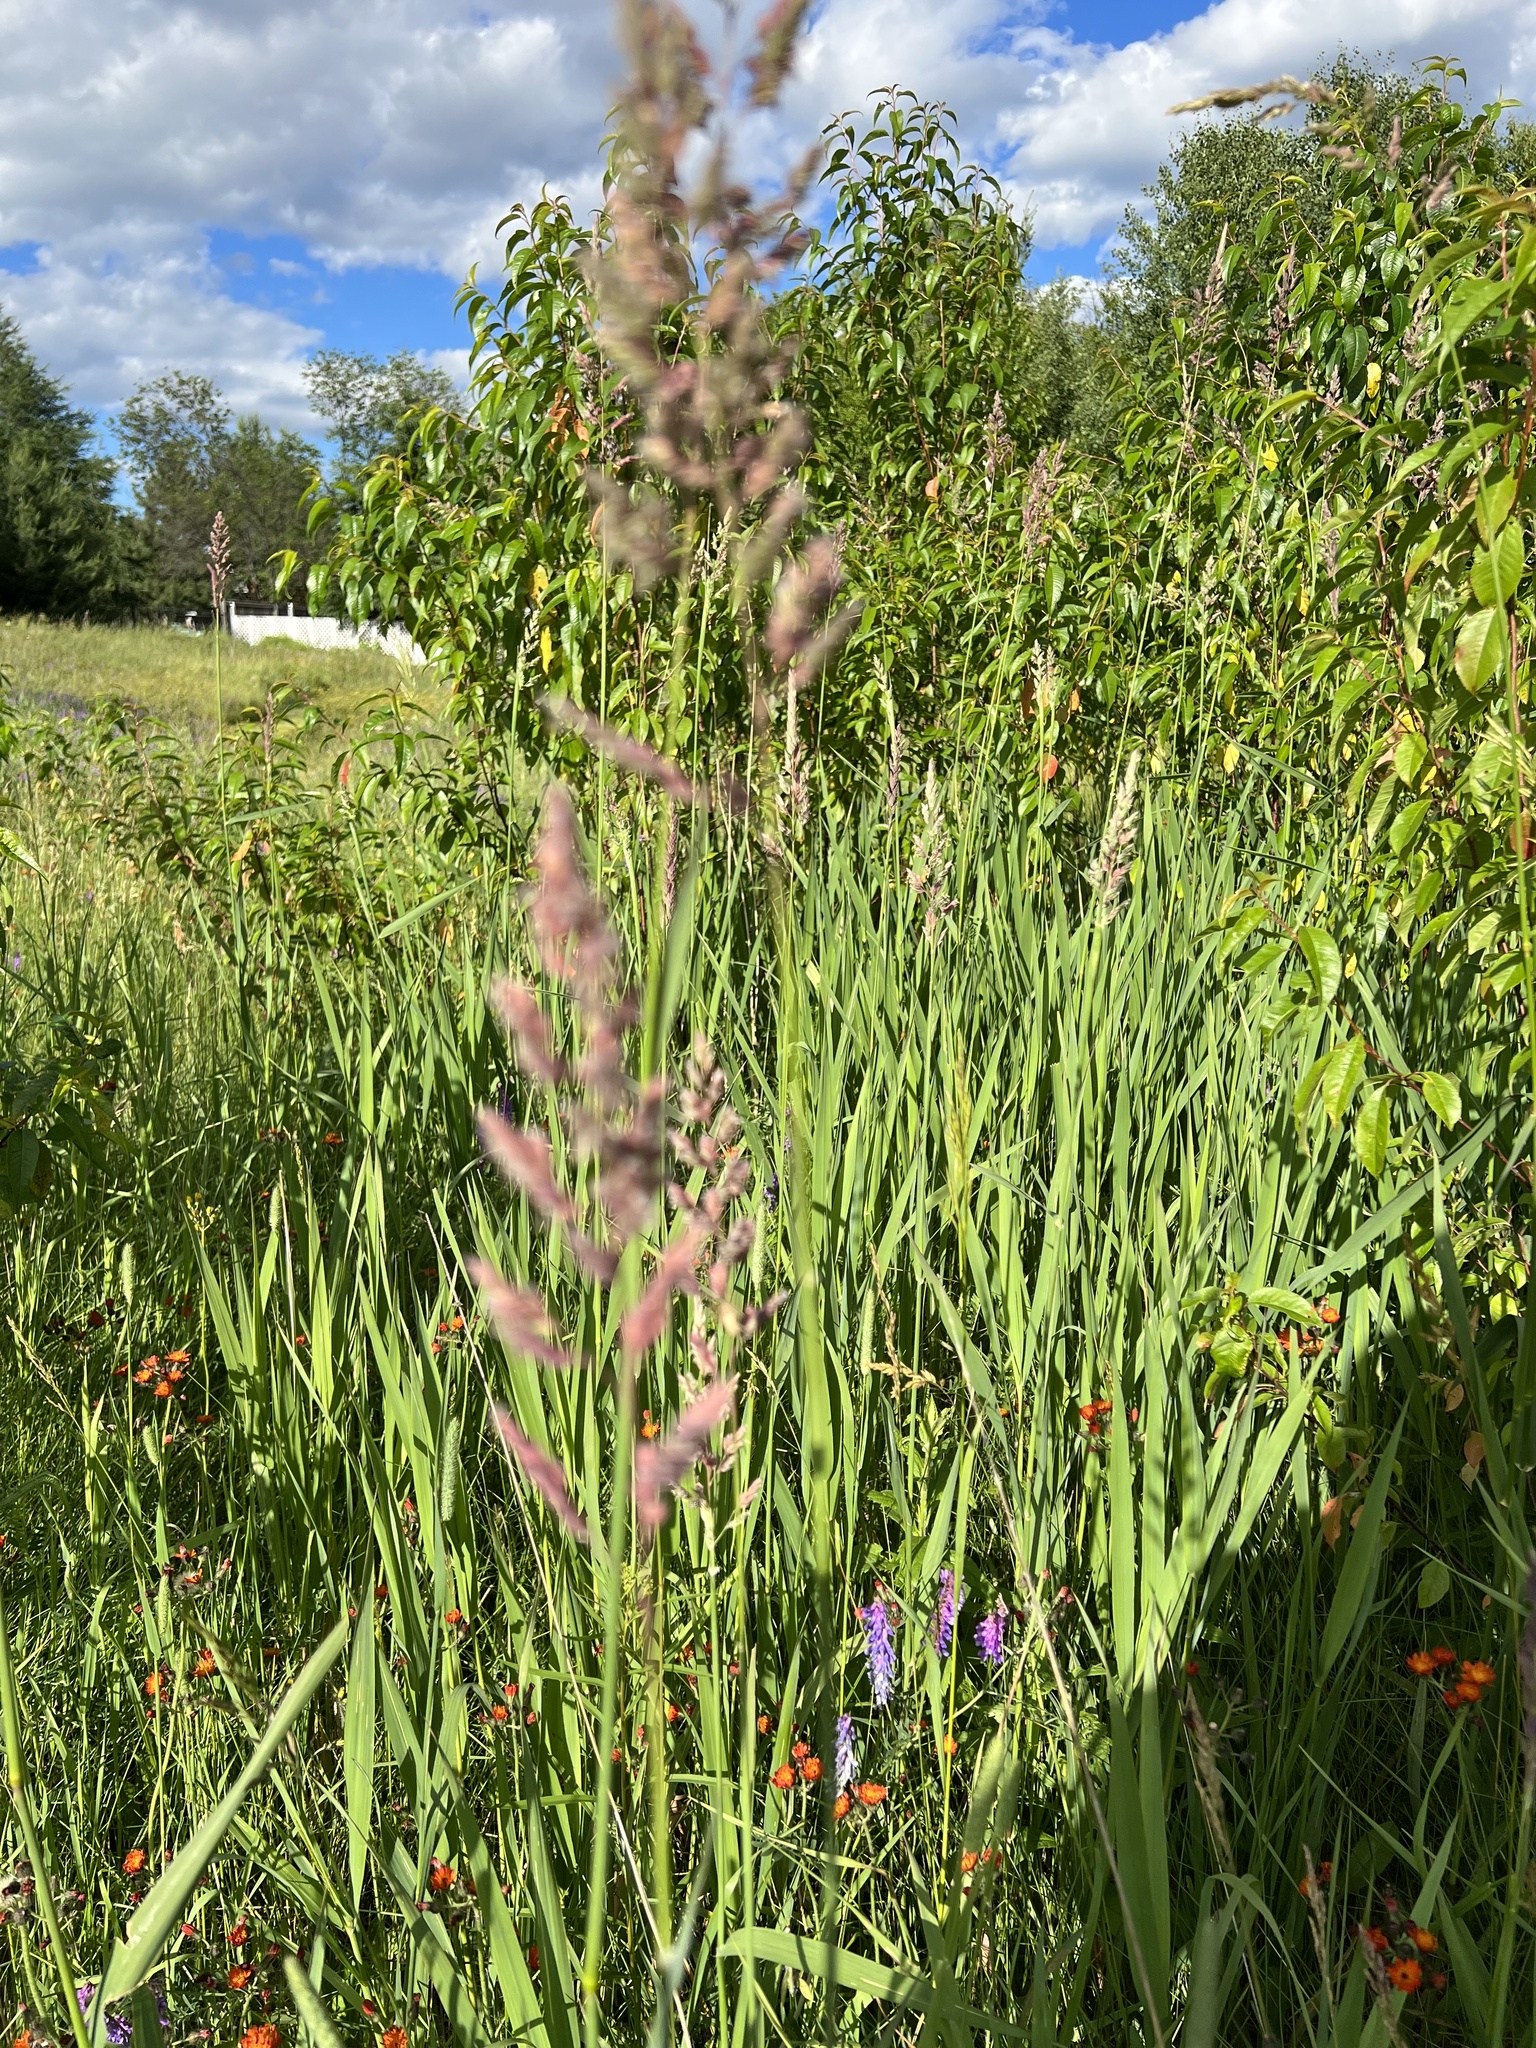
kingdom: Plantae
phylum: Tracheophyta
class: Liliopsida
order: Poales
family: Poaceae
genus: Phalaris
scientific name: Phalaris arundinacea
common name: Reed canary-grass
